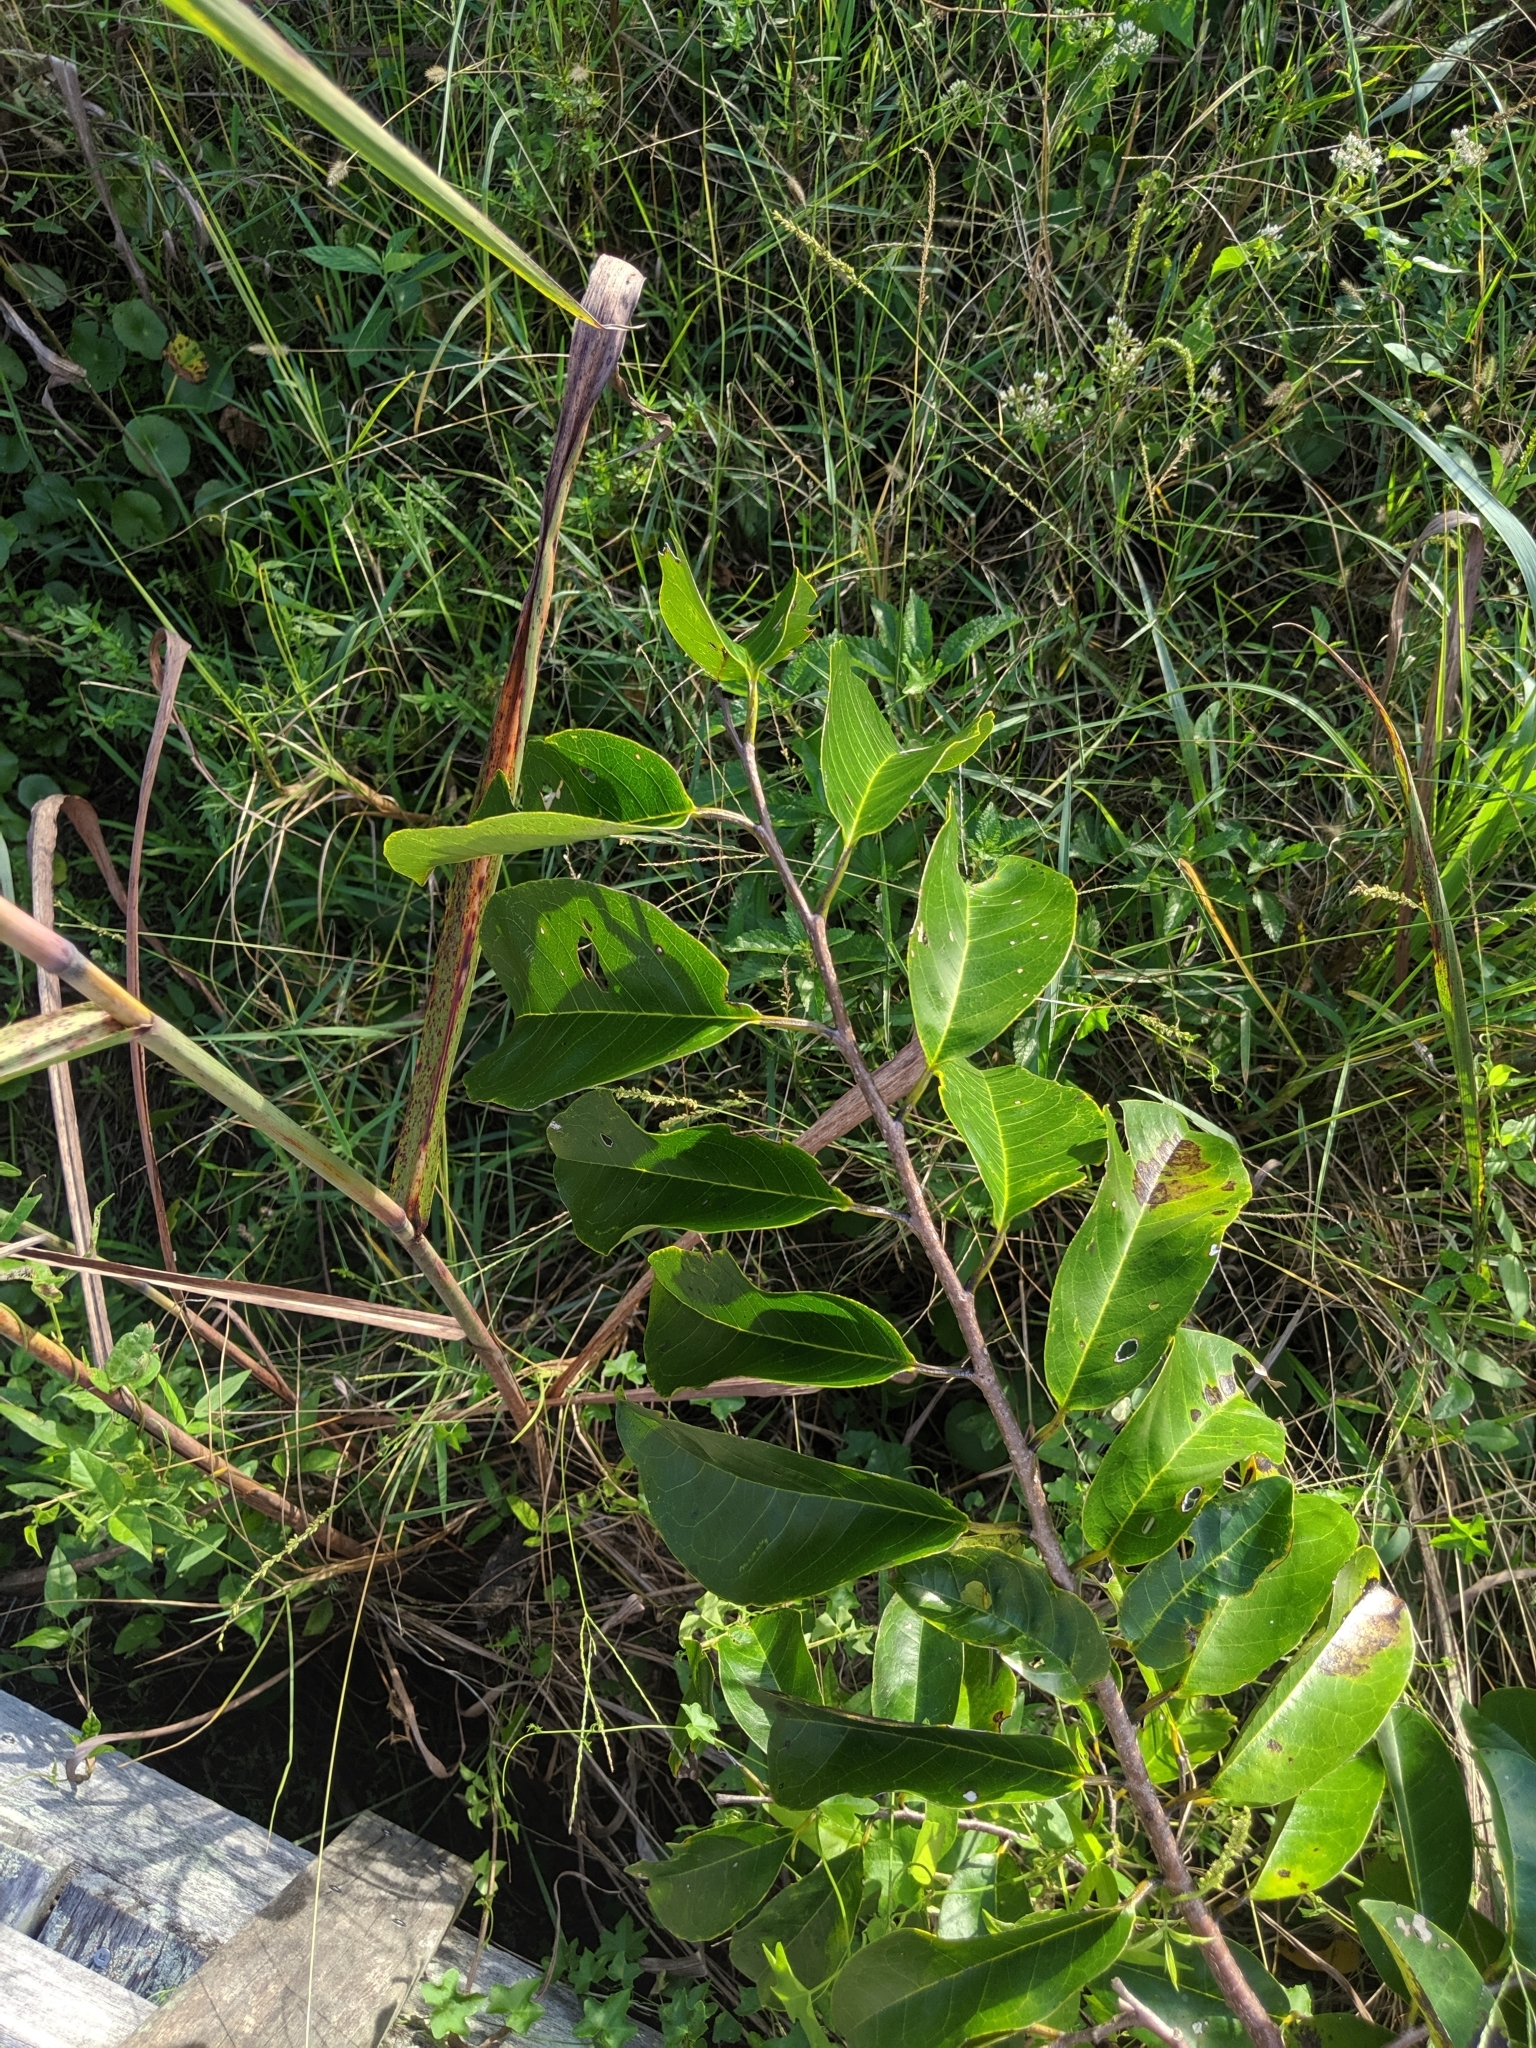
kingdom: Plantae
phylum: Tracheophyta
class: Magnoliopsida
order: Magnoliales
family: Annonaceae
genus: Annona
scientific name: Annona glabra
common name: Monkey apple
